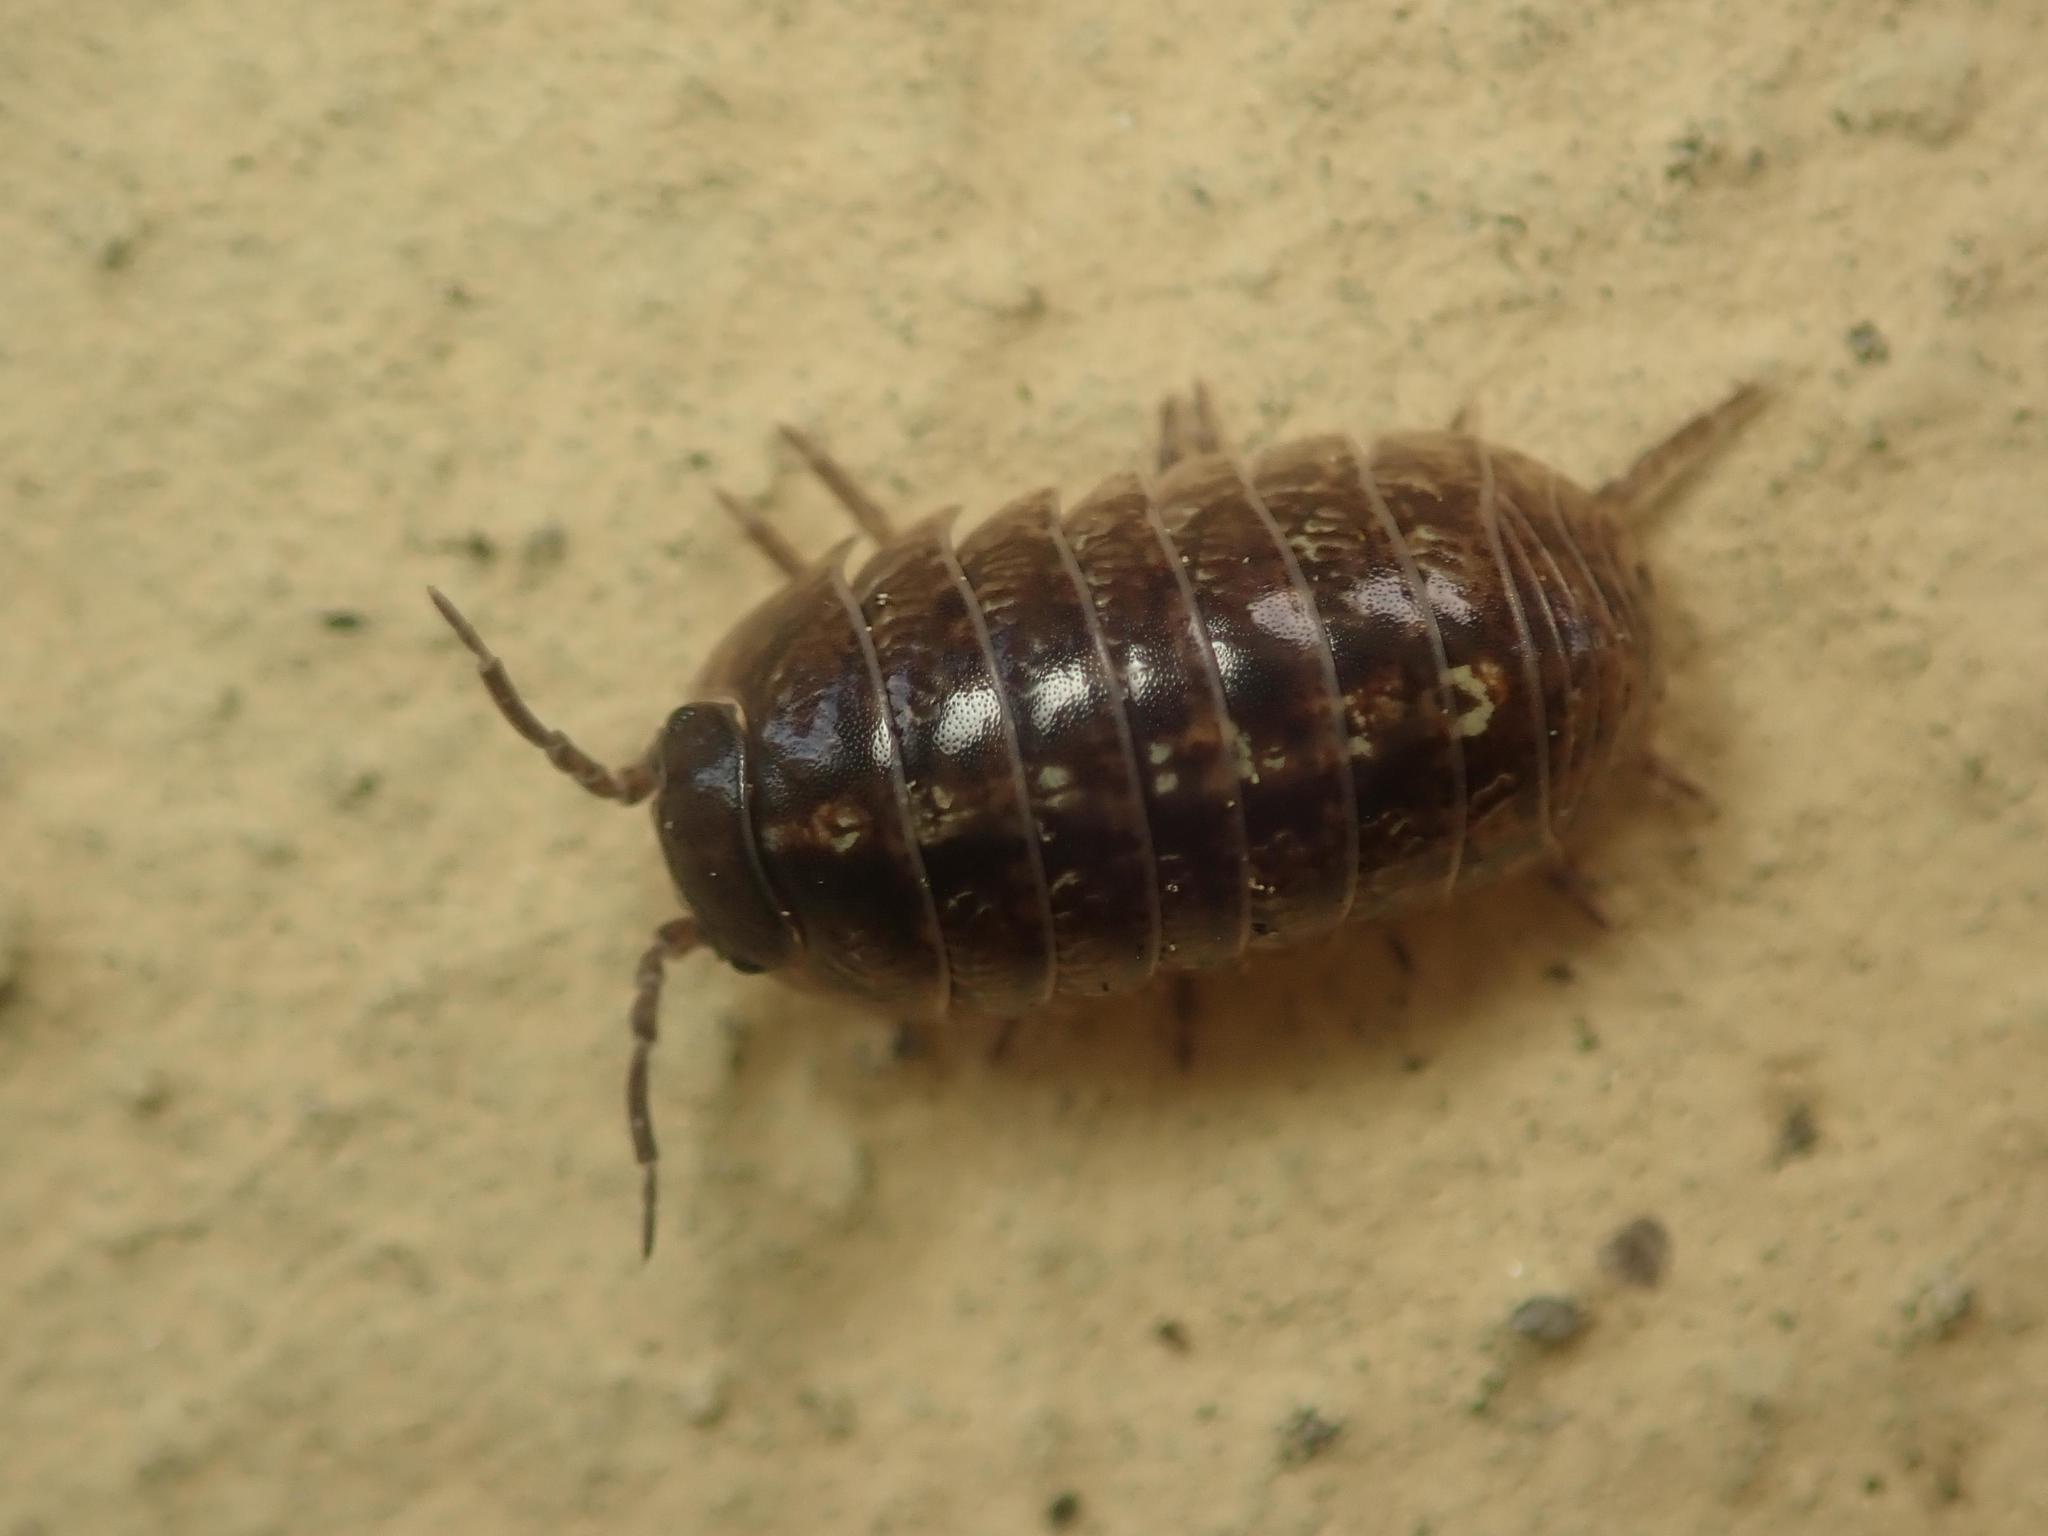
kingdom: Animalia
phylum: Arthropoda
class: Malacostraca
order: Isopoda
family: Armadillidiidae
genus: Armadillidium
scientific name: Armadillidium vulgare
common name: Common pill woodlouse
